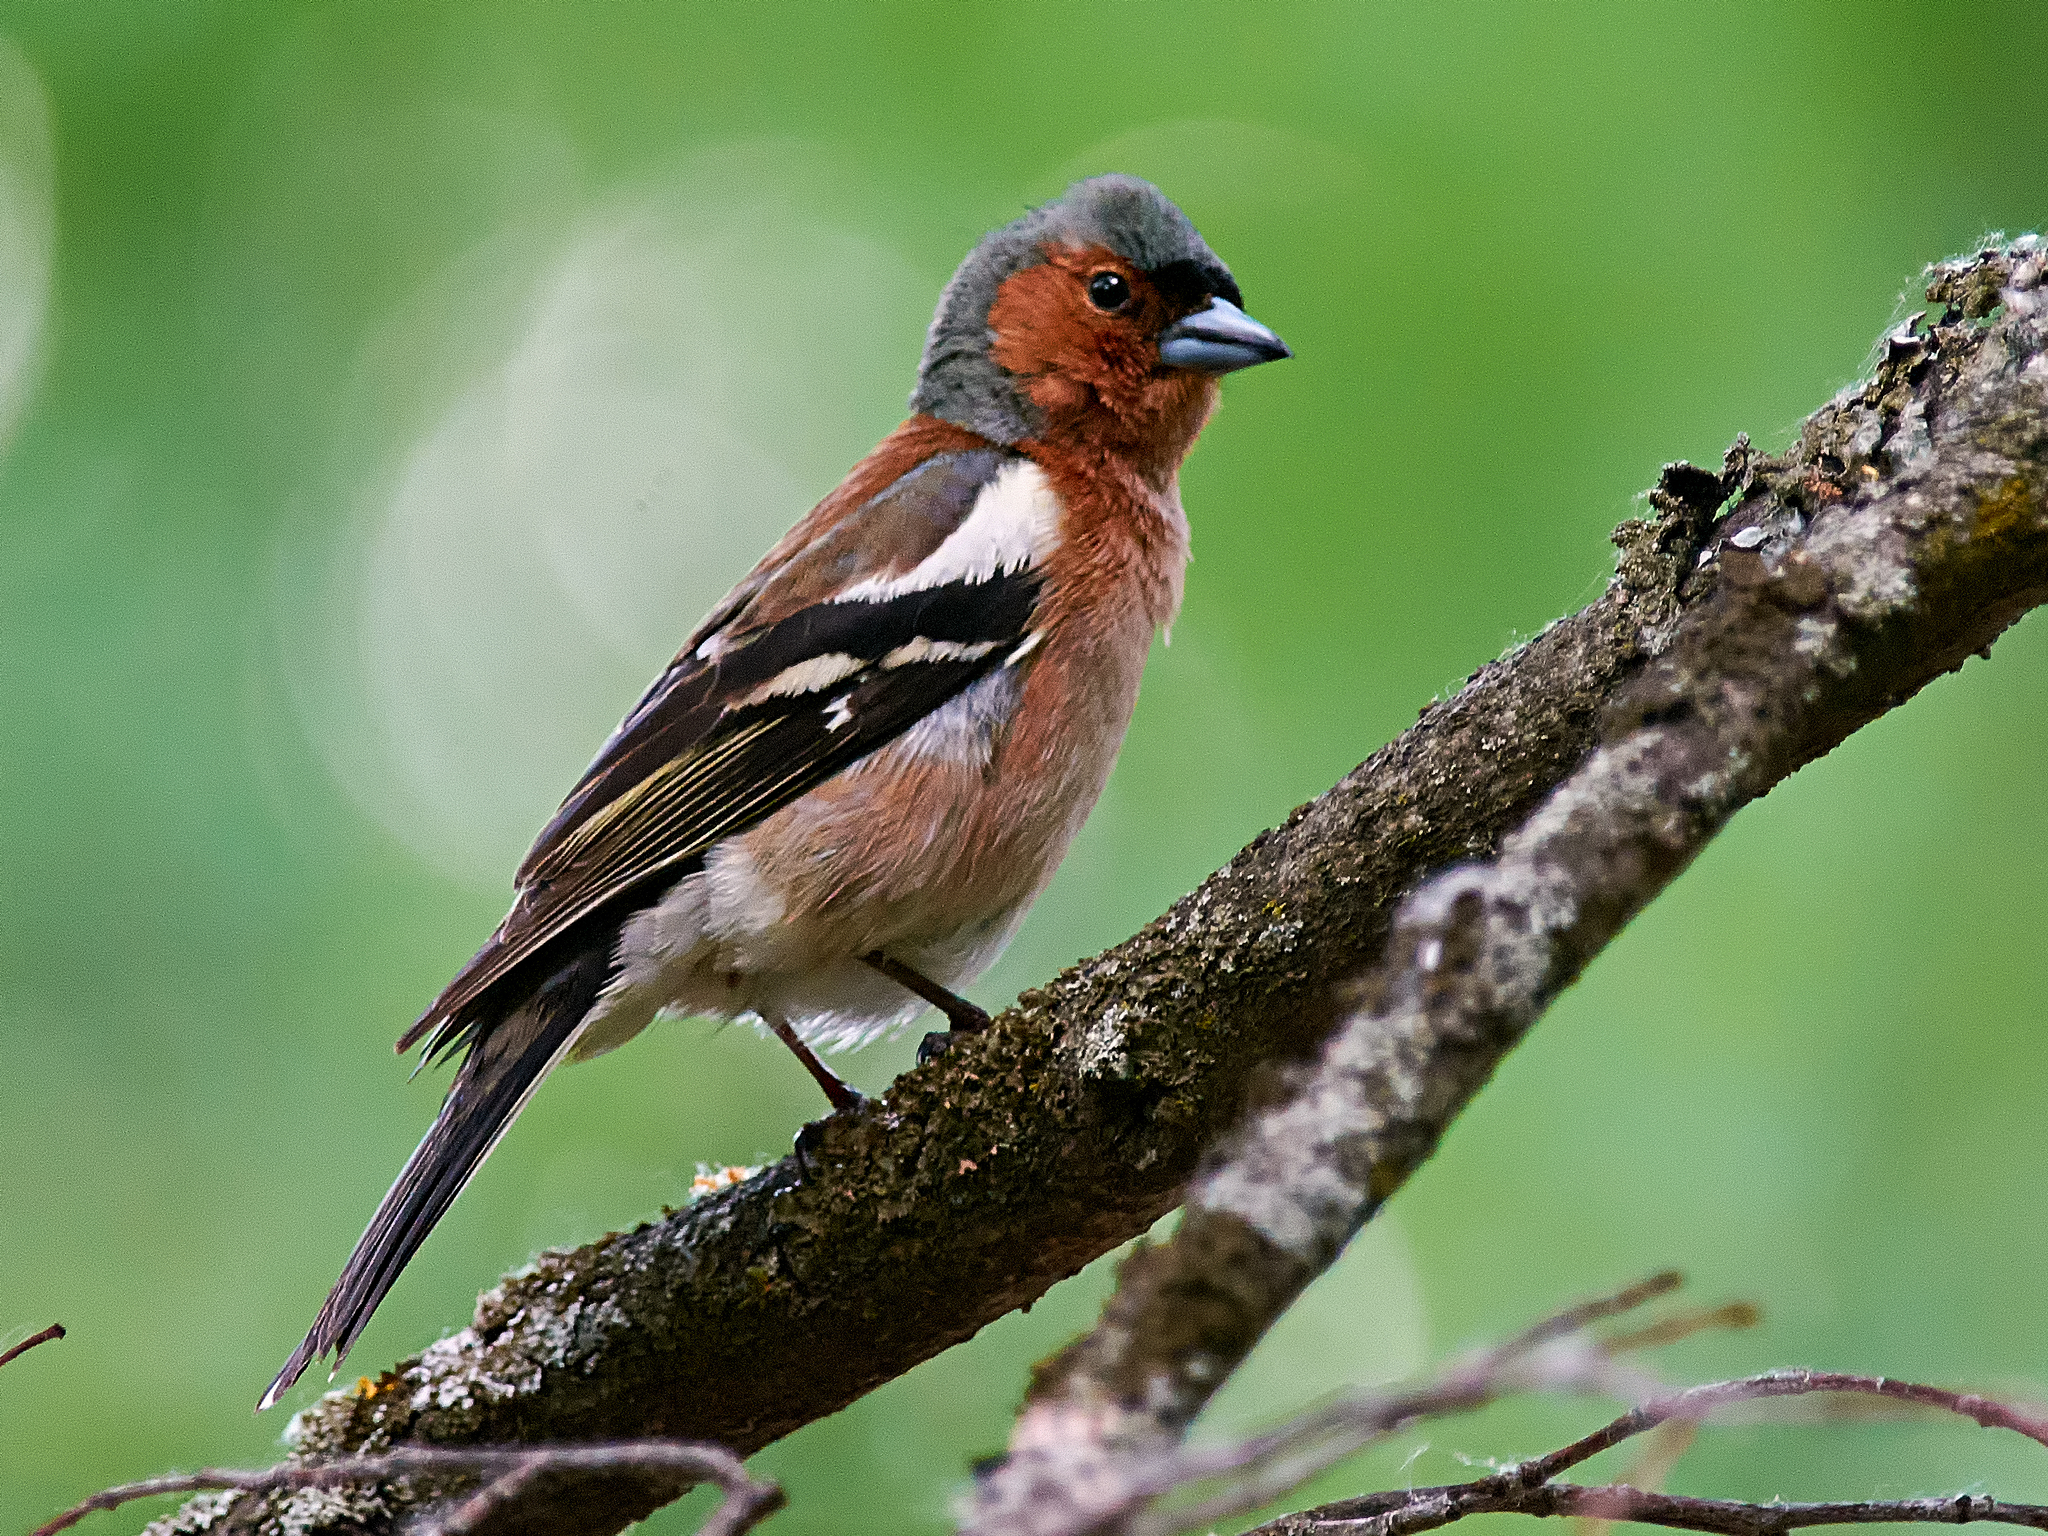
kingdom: Animalia
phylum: Chordata
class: Aves
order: Passeriformes
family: Fringillidae
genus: Fringilla
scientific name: Fringilla coelebs
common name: Common chaffinch
